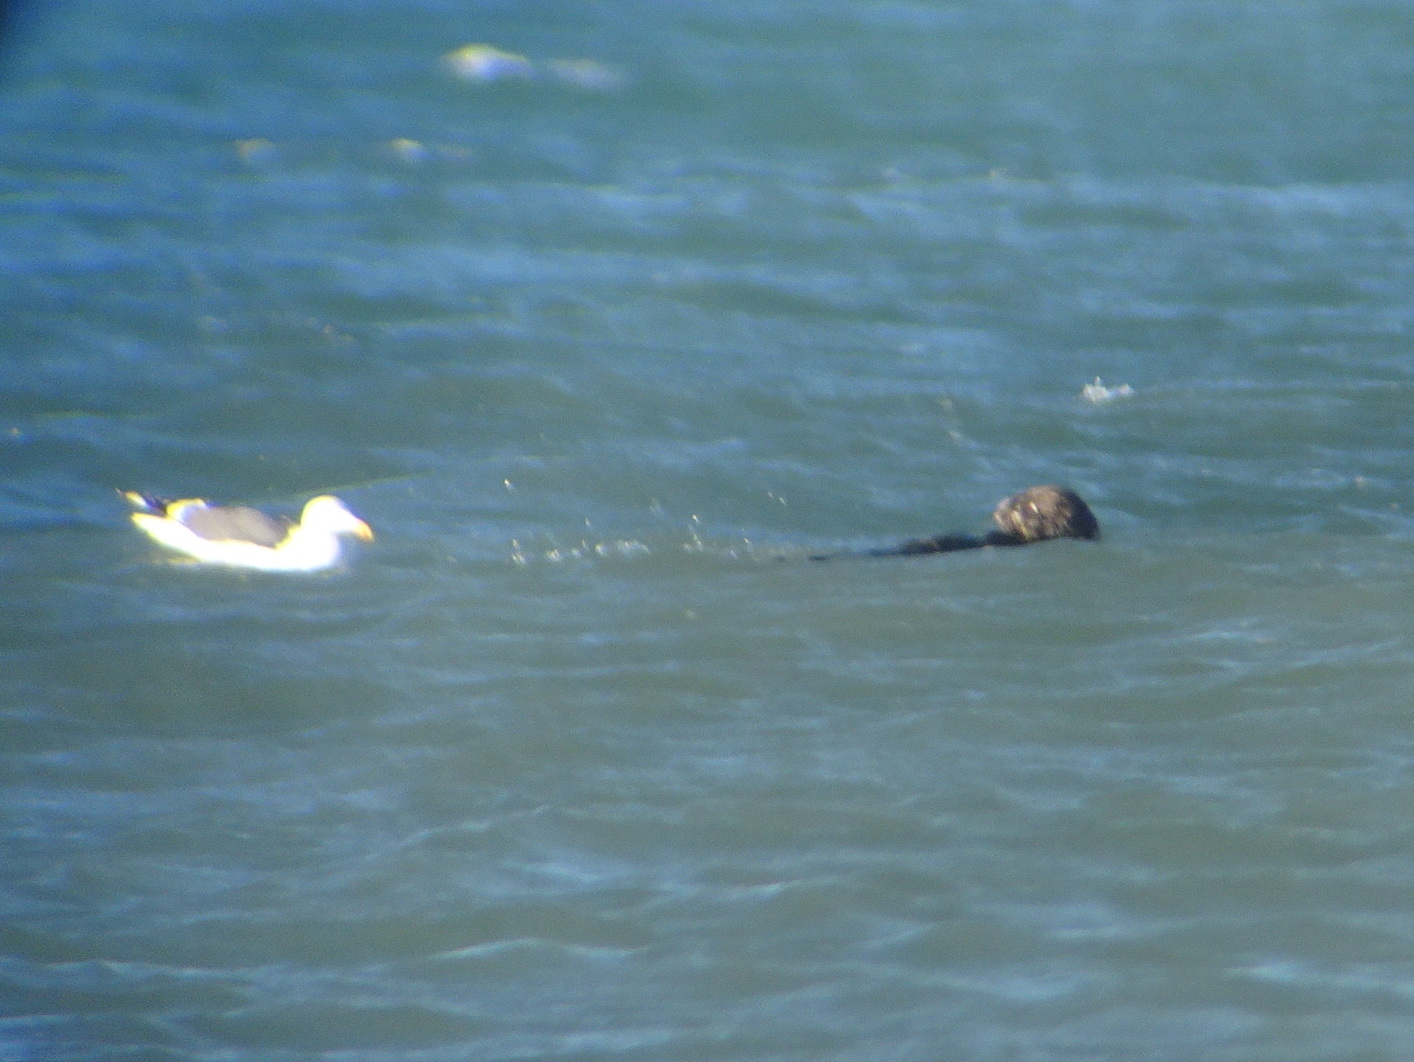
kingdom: Animalia
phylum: Chordata
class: Mammalia
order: Carnivora
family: Mustelidae
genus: Enhydra
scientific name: Enhydra lutris
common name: Sea otter
